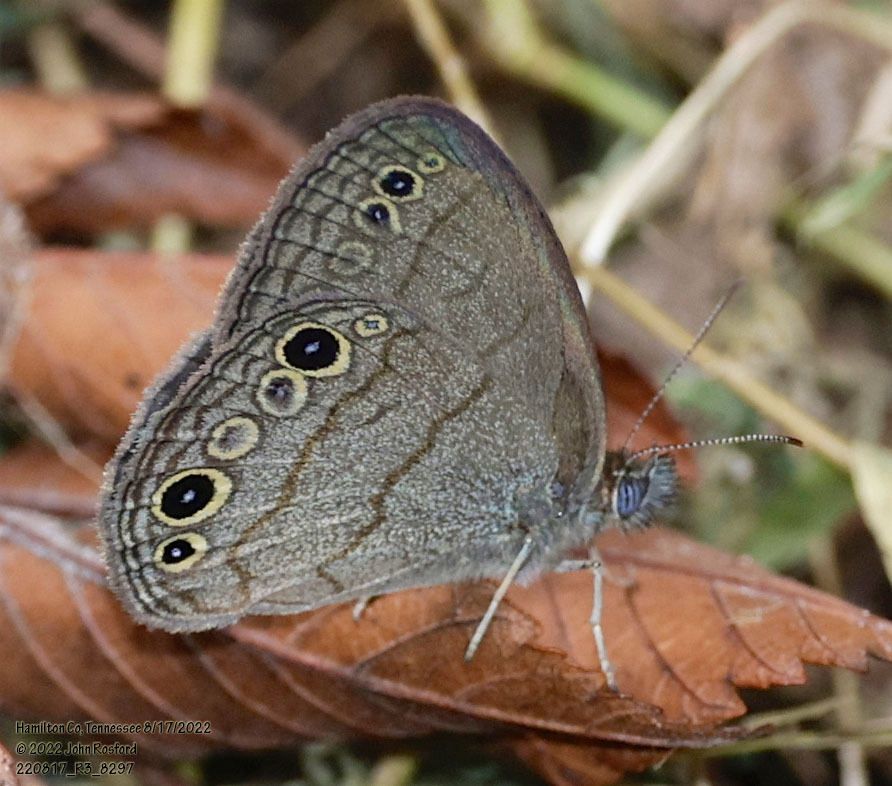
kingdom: Animalia
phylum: Arthropoda
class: Insecta
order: Lepidoptera
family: Nymphalidae
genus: Hermeuptychia
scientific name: Hermeuptychia hermes
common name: Hermes satyr
